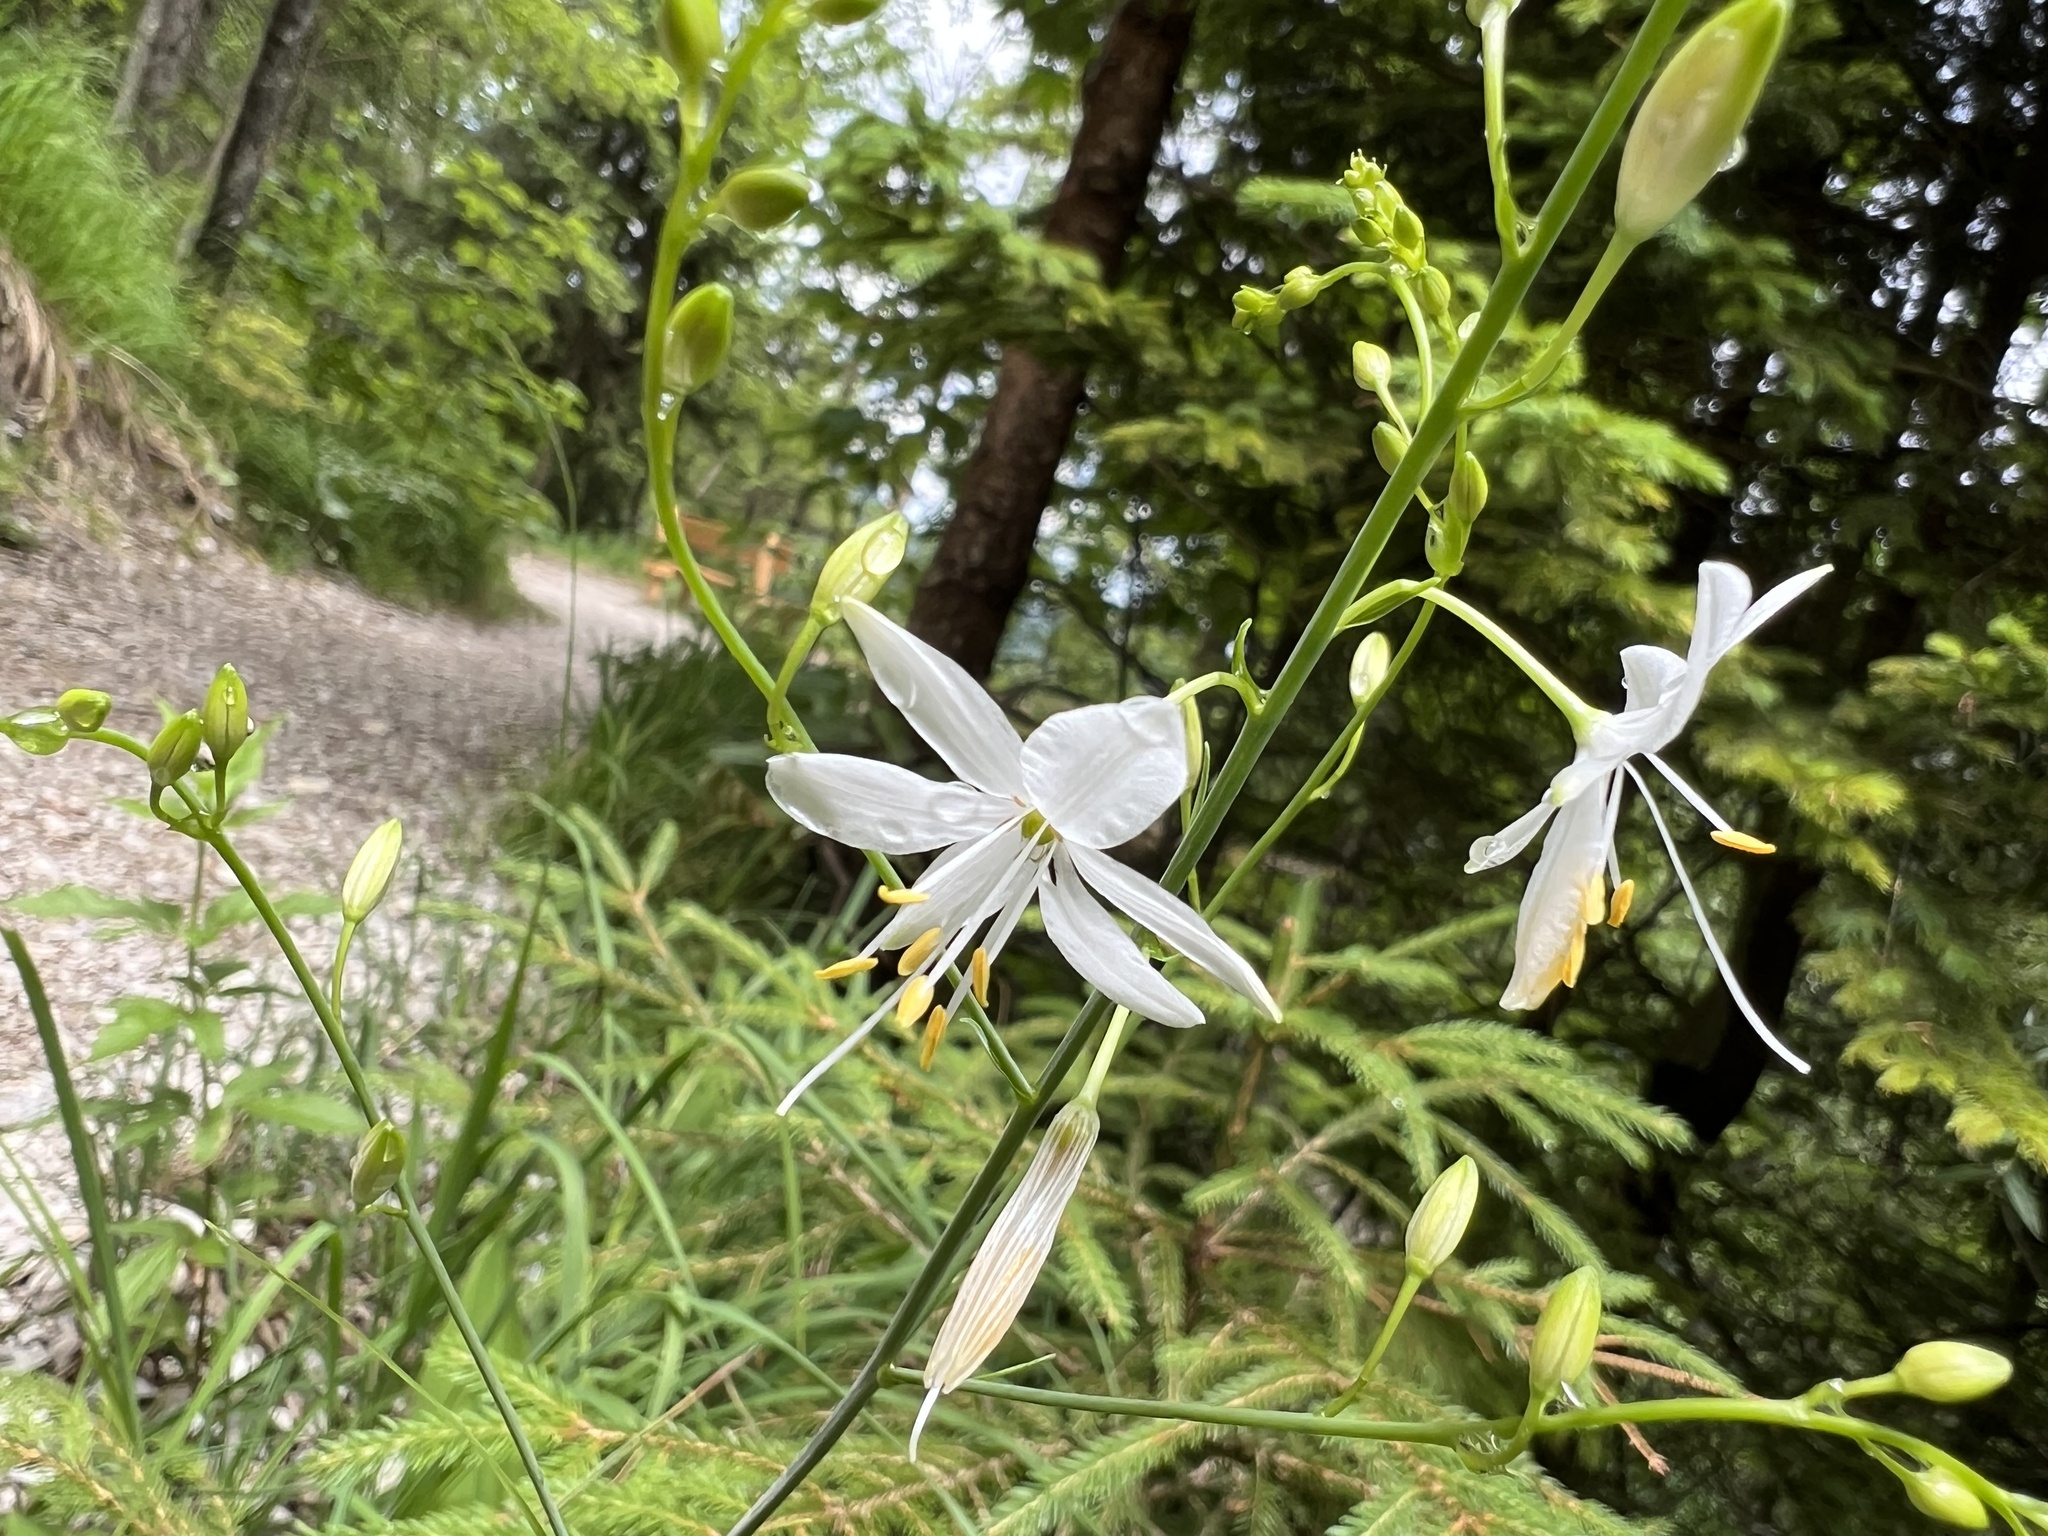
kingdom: Plantae
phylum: Tracheophyta
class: Liliopsida
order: Asparagales
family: Asparagaceae
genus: Anthericum
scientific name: Anthericum ramosum
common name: Branched st. bernard's-lily
